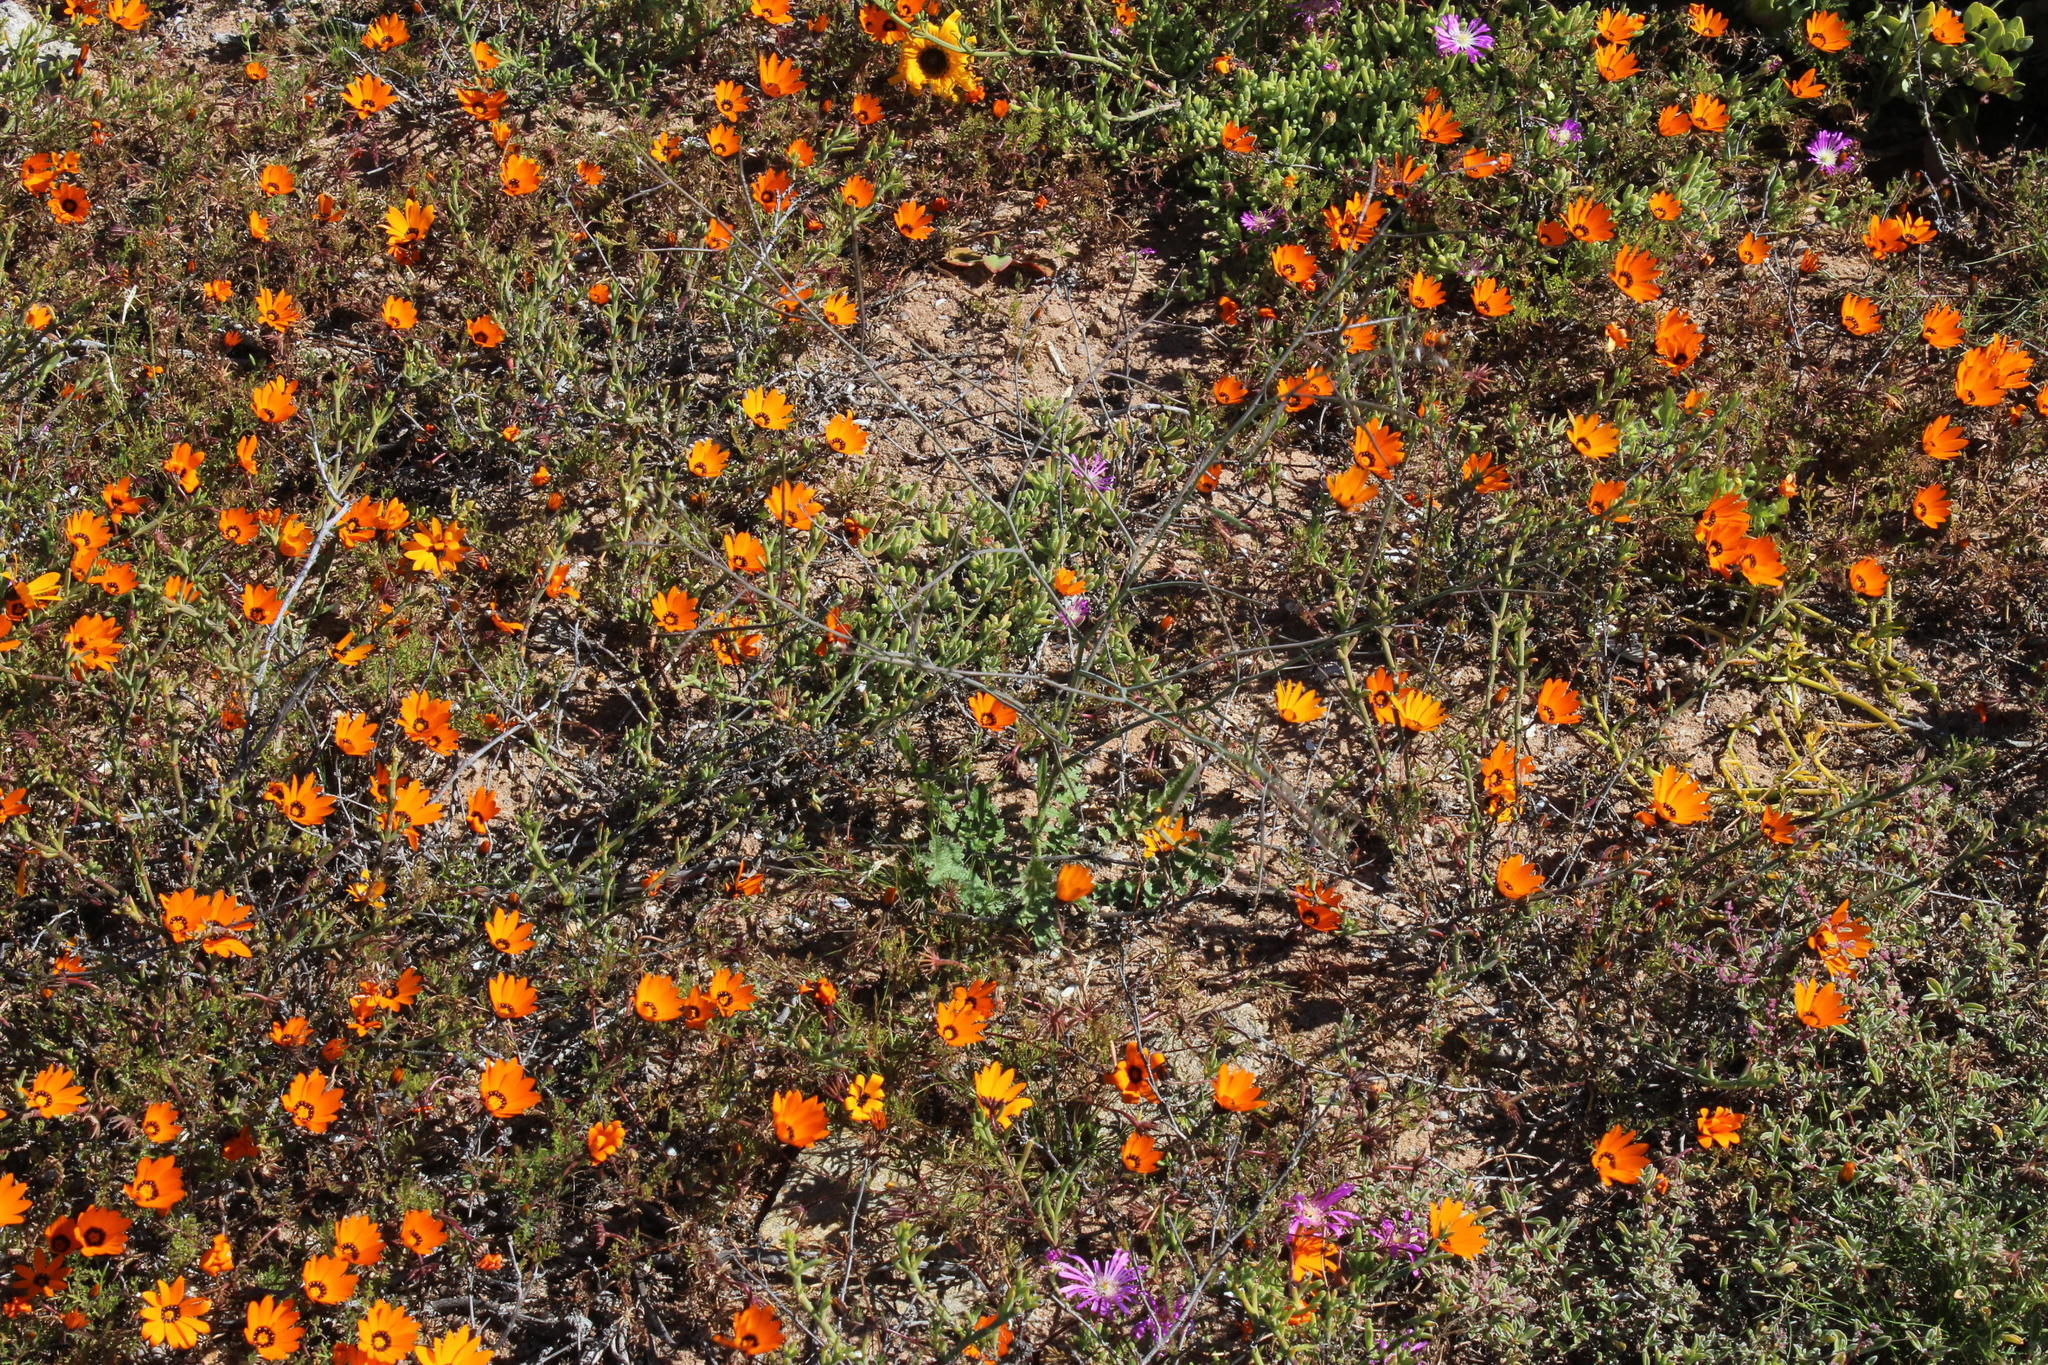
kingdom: Plantae
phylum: Tracheophyta
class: Magnoliopsida
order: Brassicales
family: Brassicaceae
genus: Brassica
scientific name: Brassica tournefortii
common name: Pale cabbage
